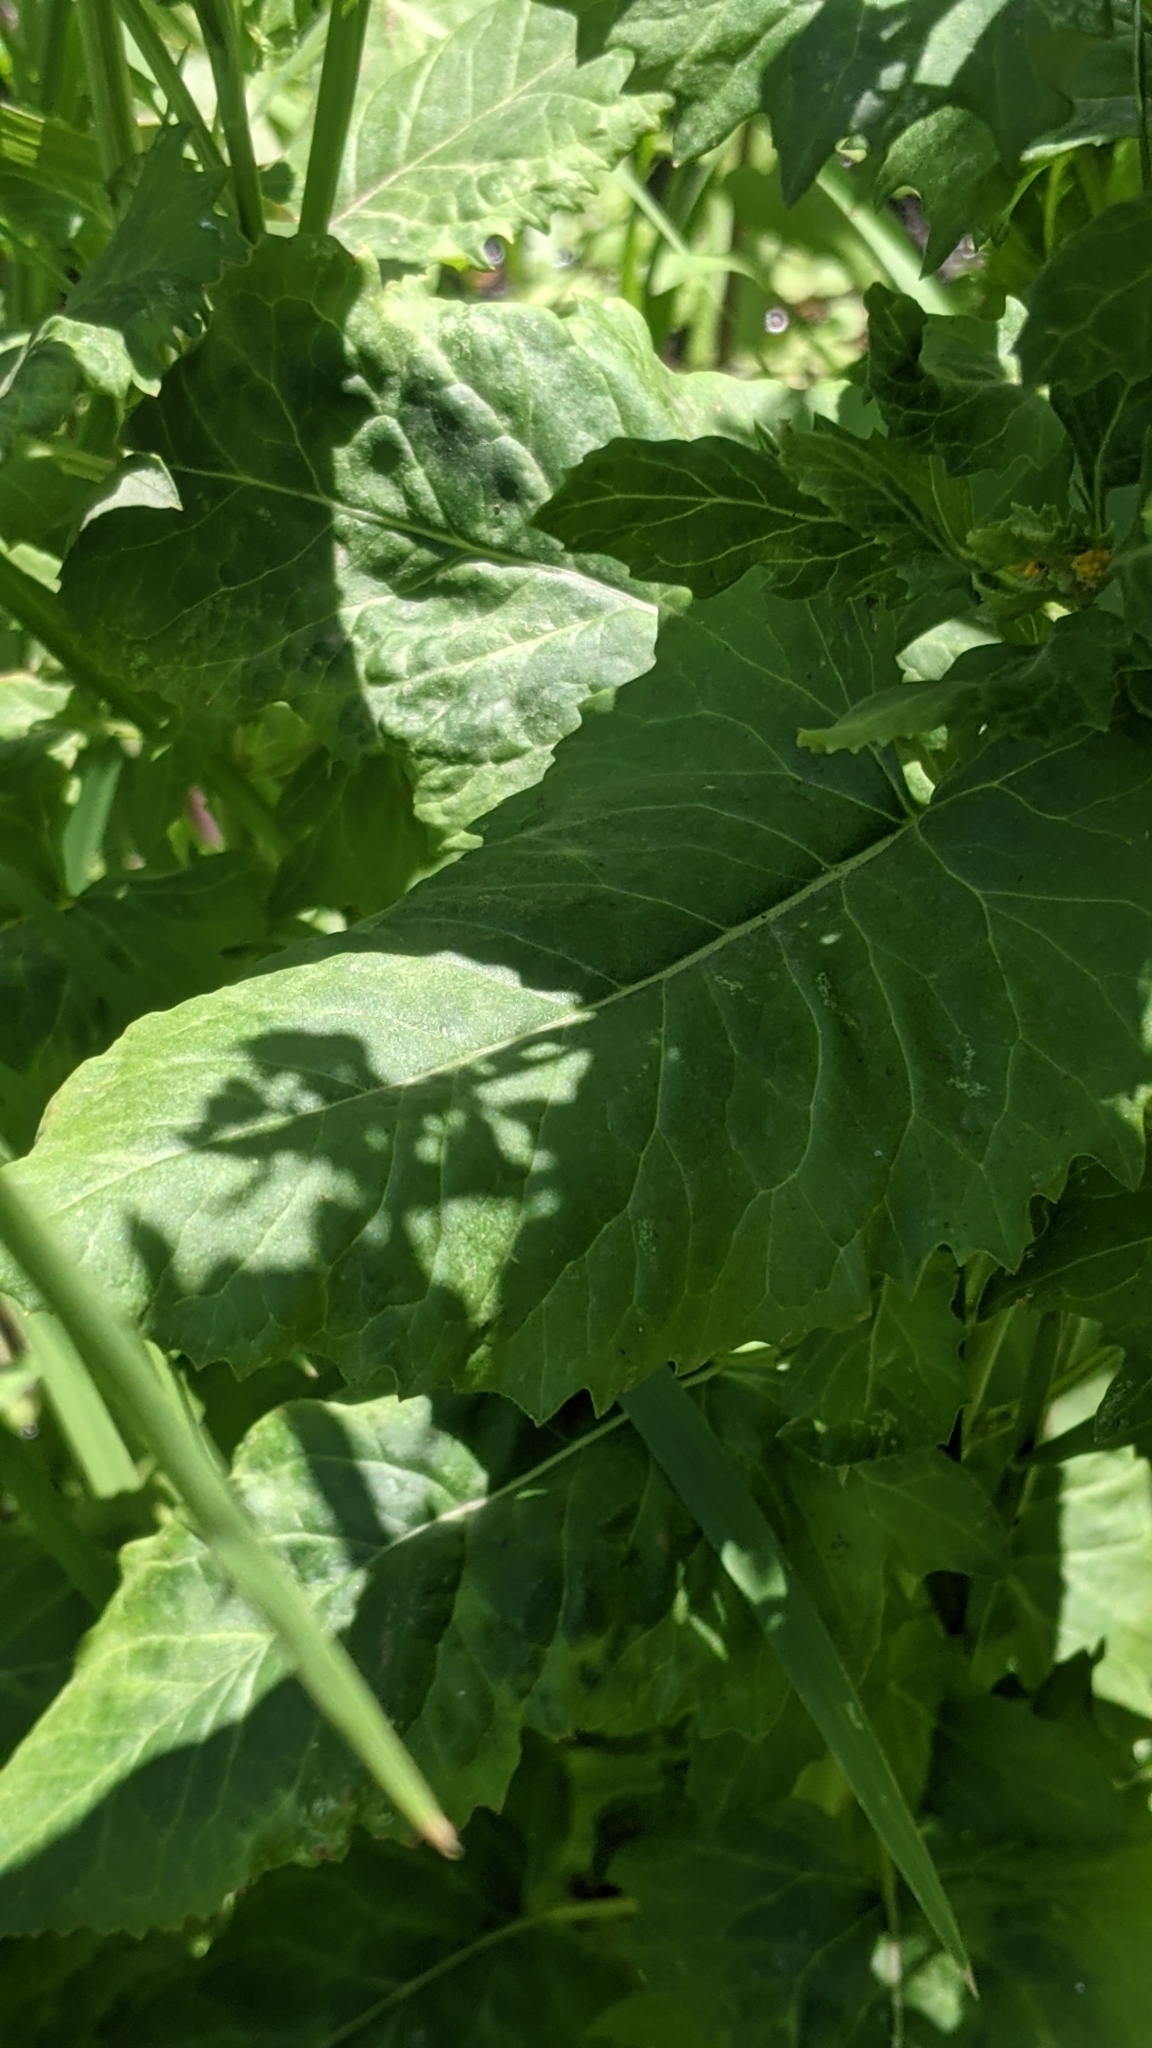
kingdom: Plantae
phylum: Tracheophyta
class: Magnoliopsida
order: Asterales
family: Asteraceae
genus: Senecio
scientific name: Senecio triangularis
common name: Arrowleaf butterweed
